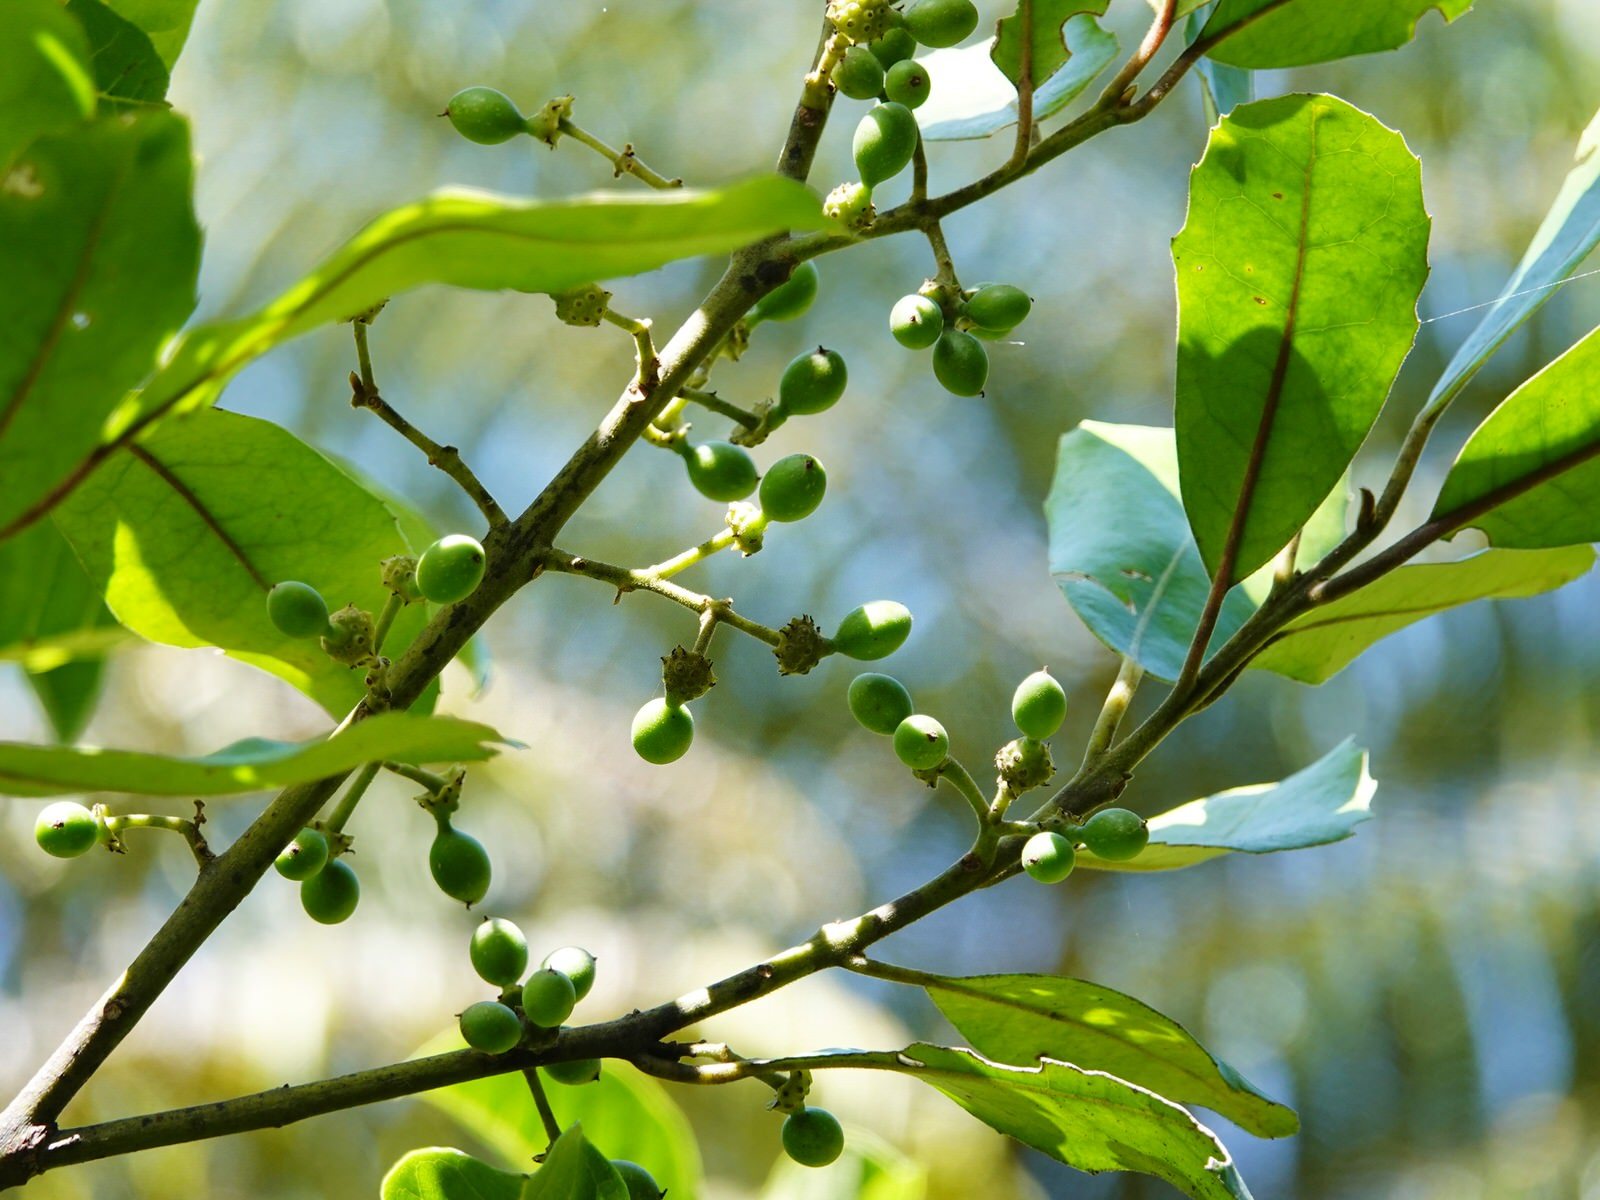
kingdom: Plantae
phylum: Tracheophyta
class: Magnoliopsida
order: Laurales
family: Monimiaceae
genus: Hedycarya
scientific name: Hedycarya arborea
